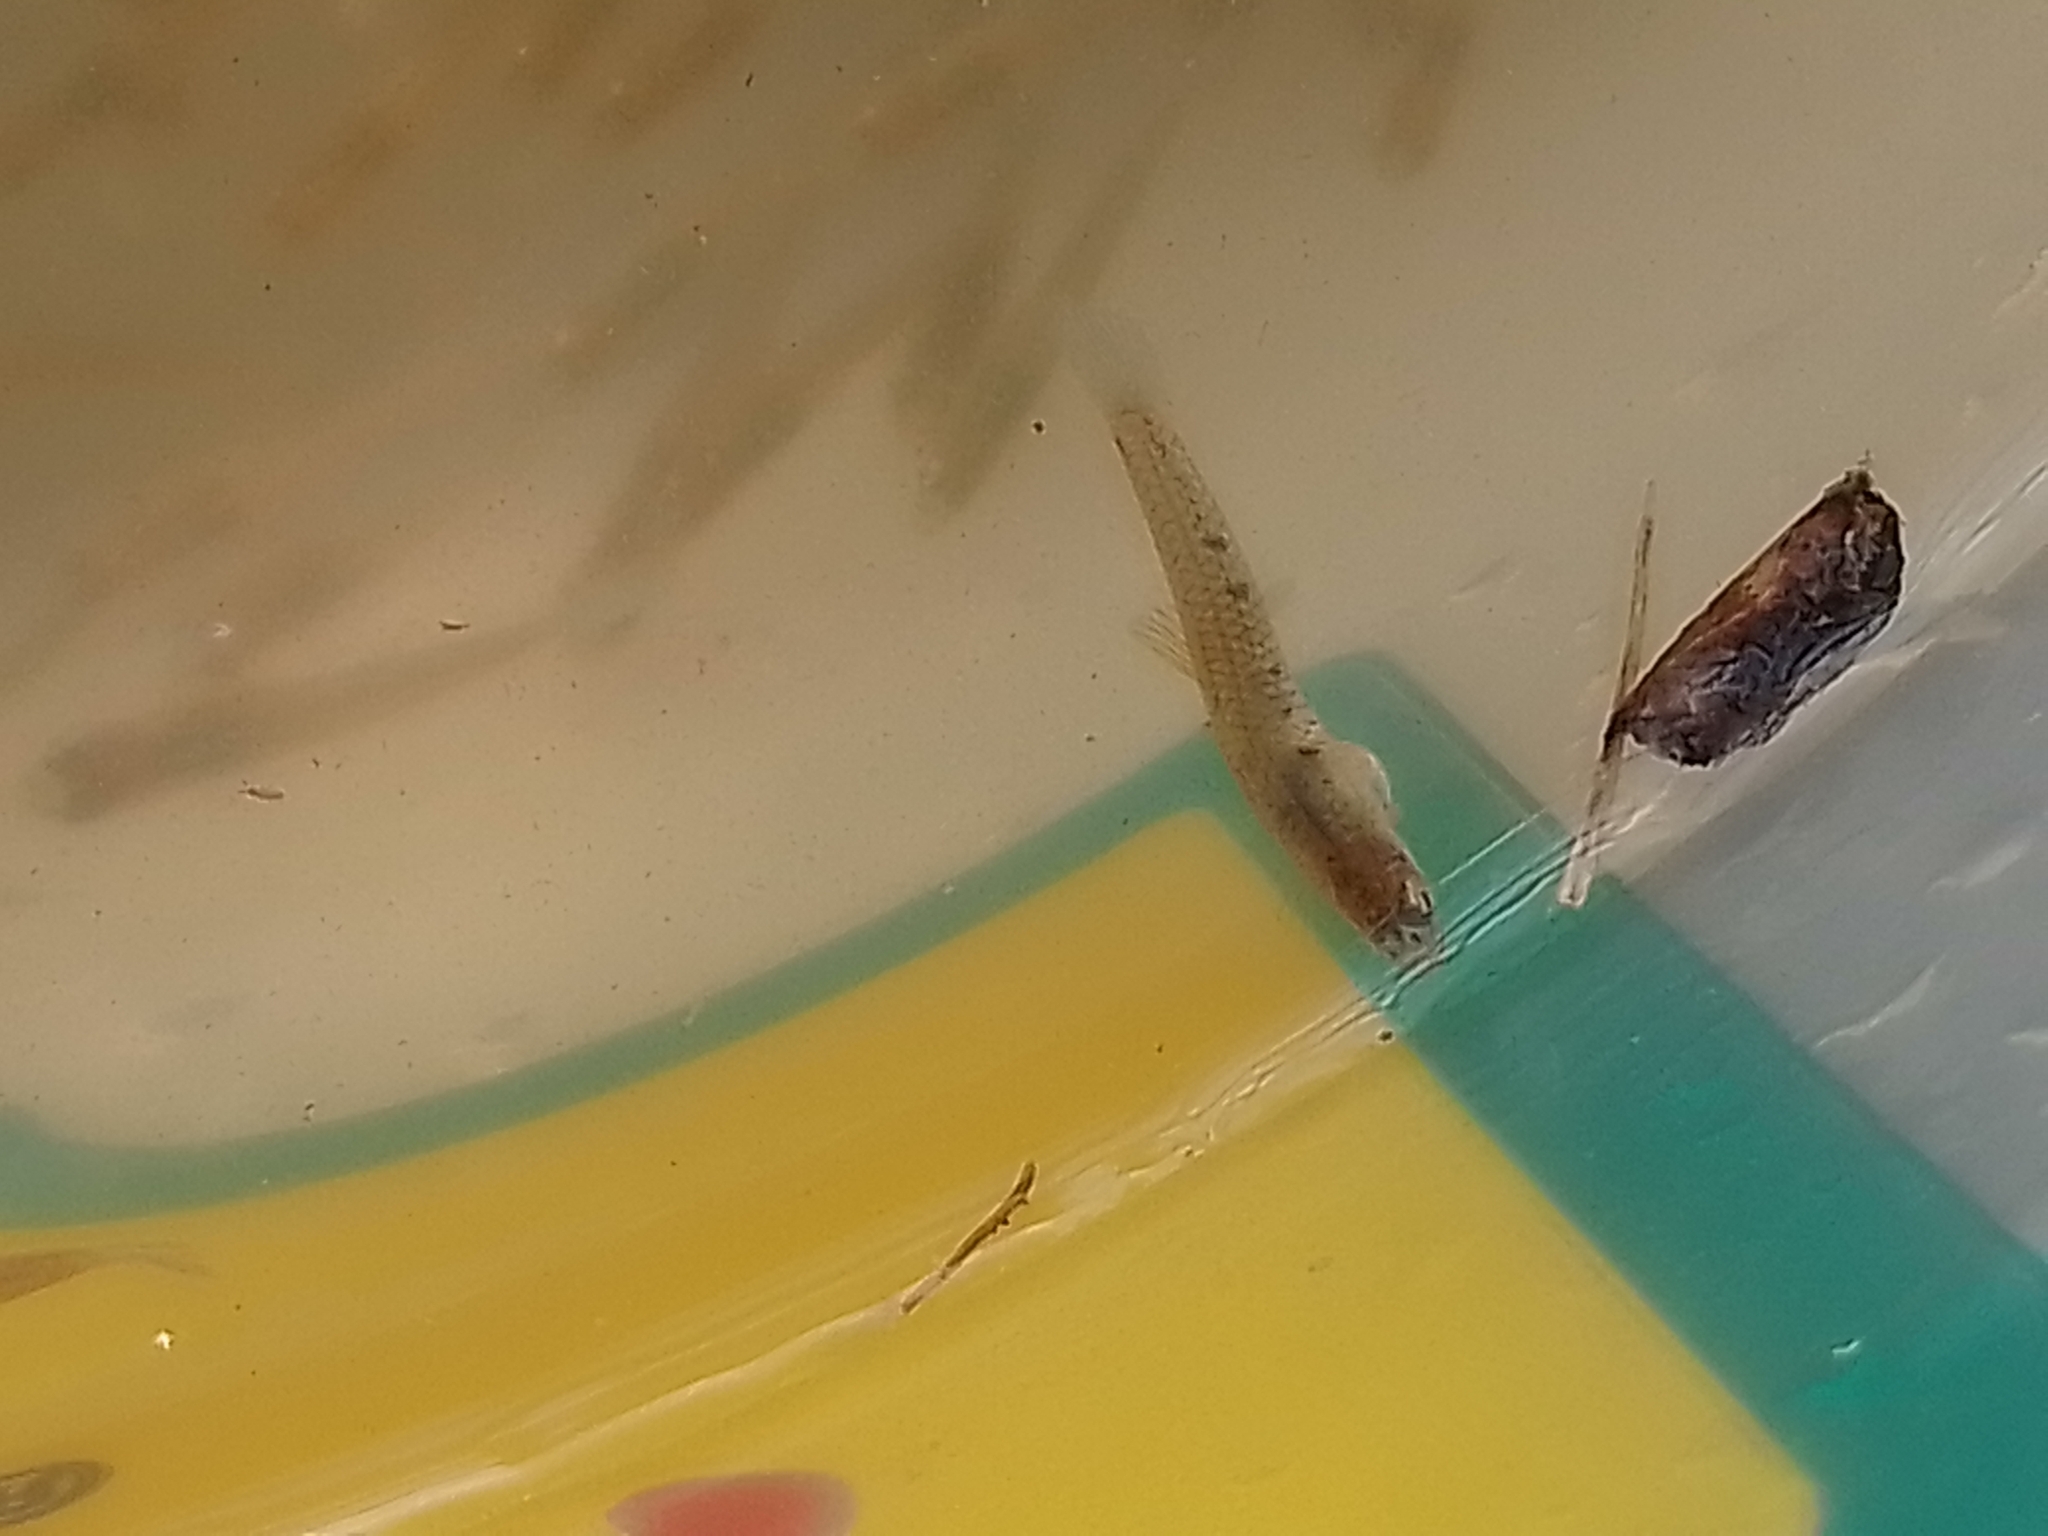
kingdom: Animalia
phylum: Chordata
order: Cyprinodontiformes
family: Poeciliidae
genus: Cnesterodon
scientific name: Cnesterodon decemmaculatus
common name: Ten spotted live-bearer
